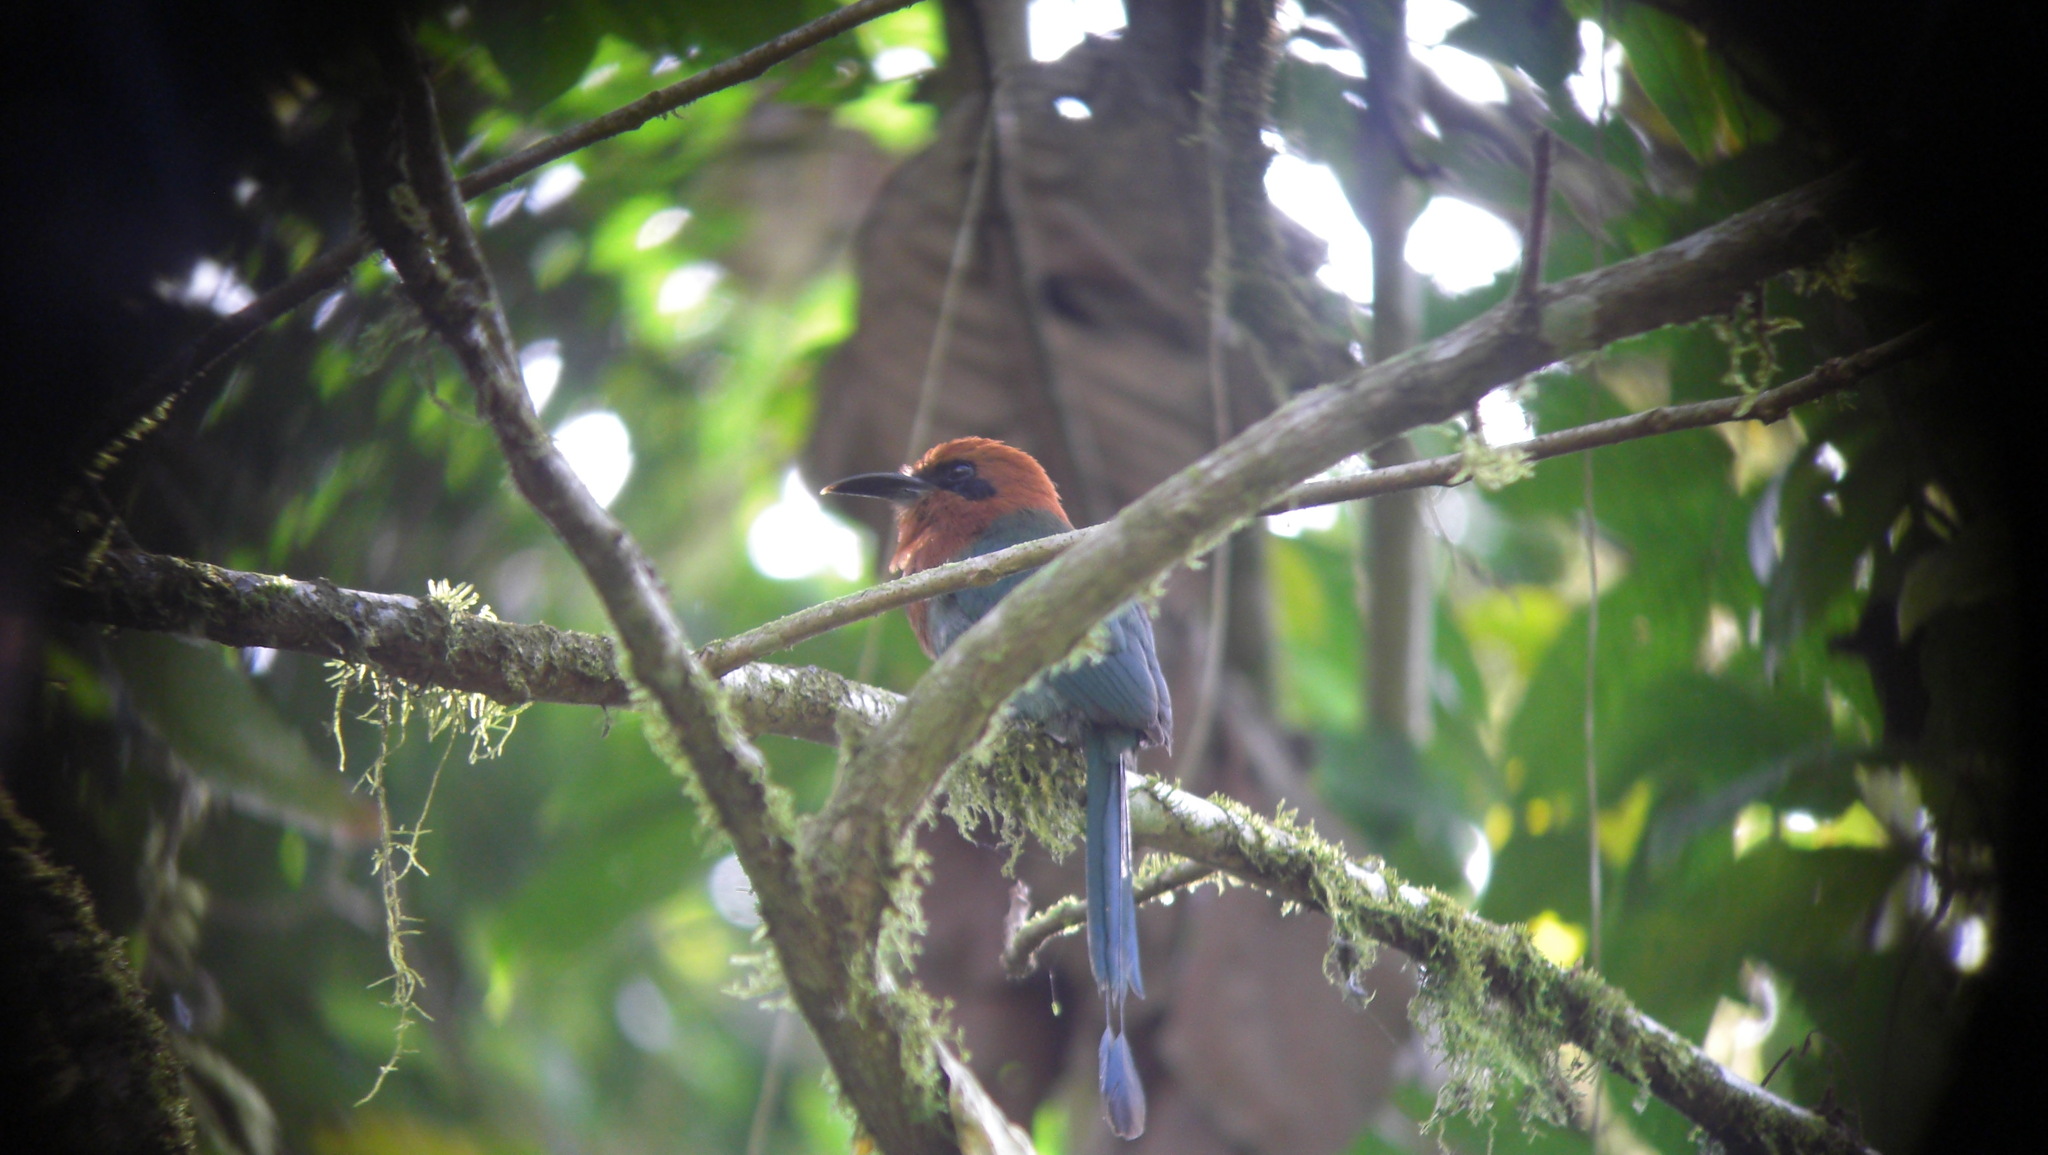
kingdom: Animalia
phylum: Chordata
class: Aves
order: Coraciiformes
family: Momotidae
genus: Electron
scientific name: Electron platyrhynchum
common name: Broad-billed motmot
